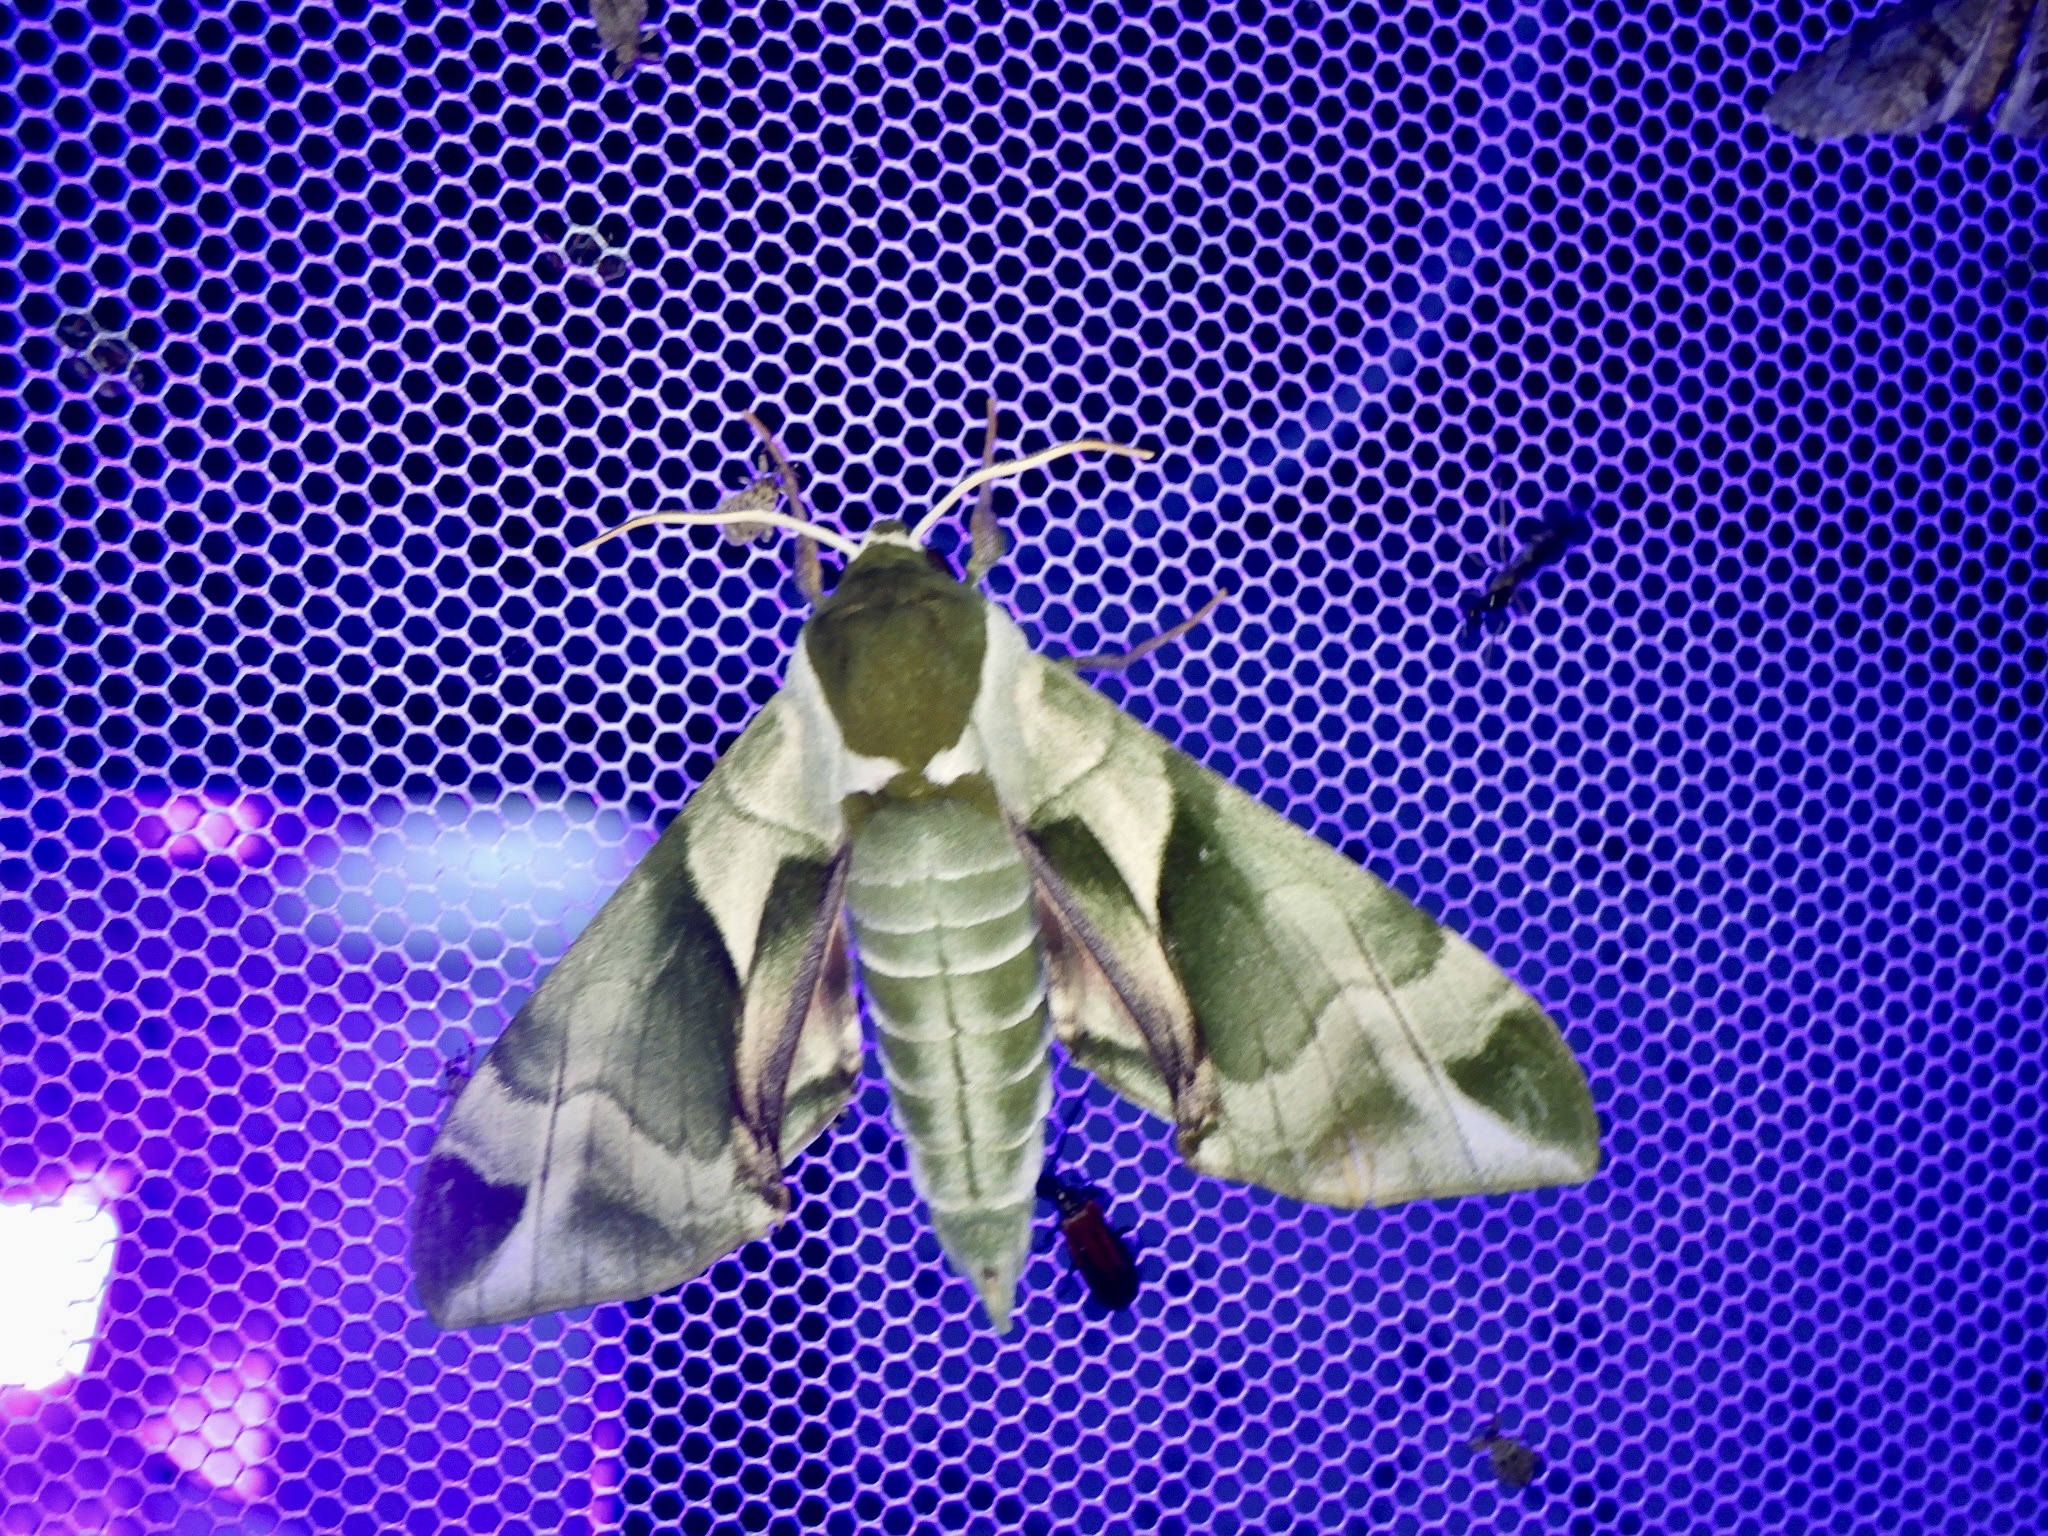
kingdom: Animalia
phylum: Arthropoda
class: Insecta
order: Lepidoptera
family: Sphingidae
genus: Callambulyx
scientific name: Callambulyx tatarinovii
